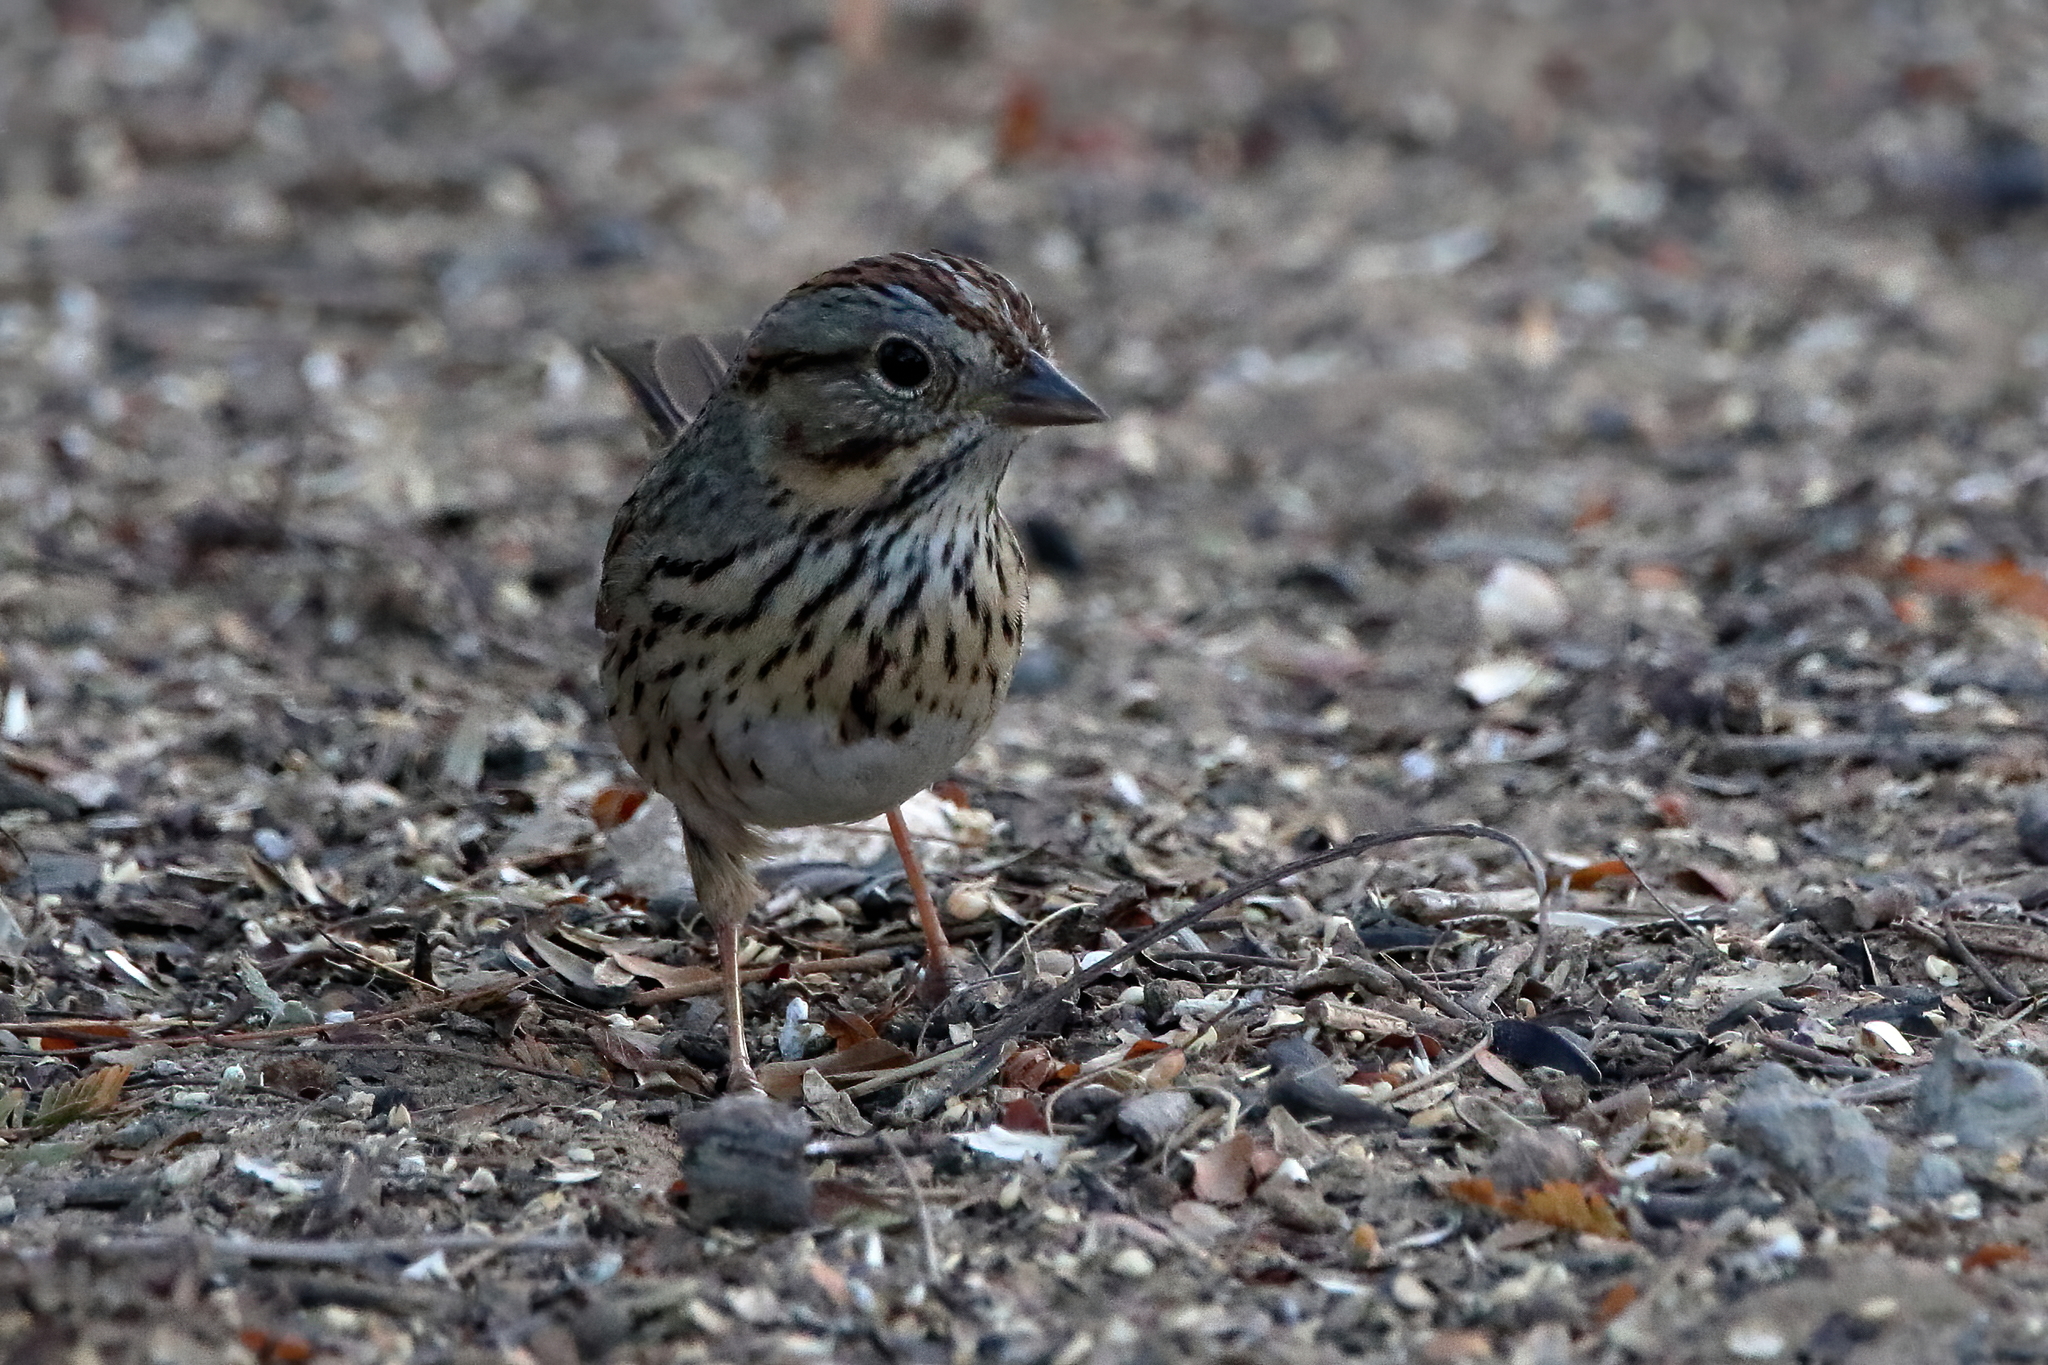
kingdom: Animalia
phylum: Chordata
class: Aves
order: Passeriformes
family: Passerellidae
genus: Melospiza
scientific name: Melospiza lincolnii
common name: Lincoln's sparrow
